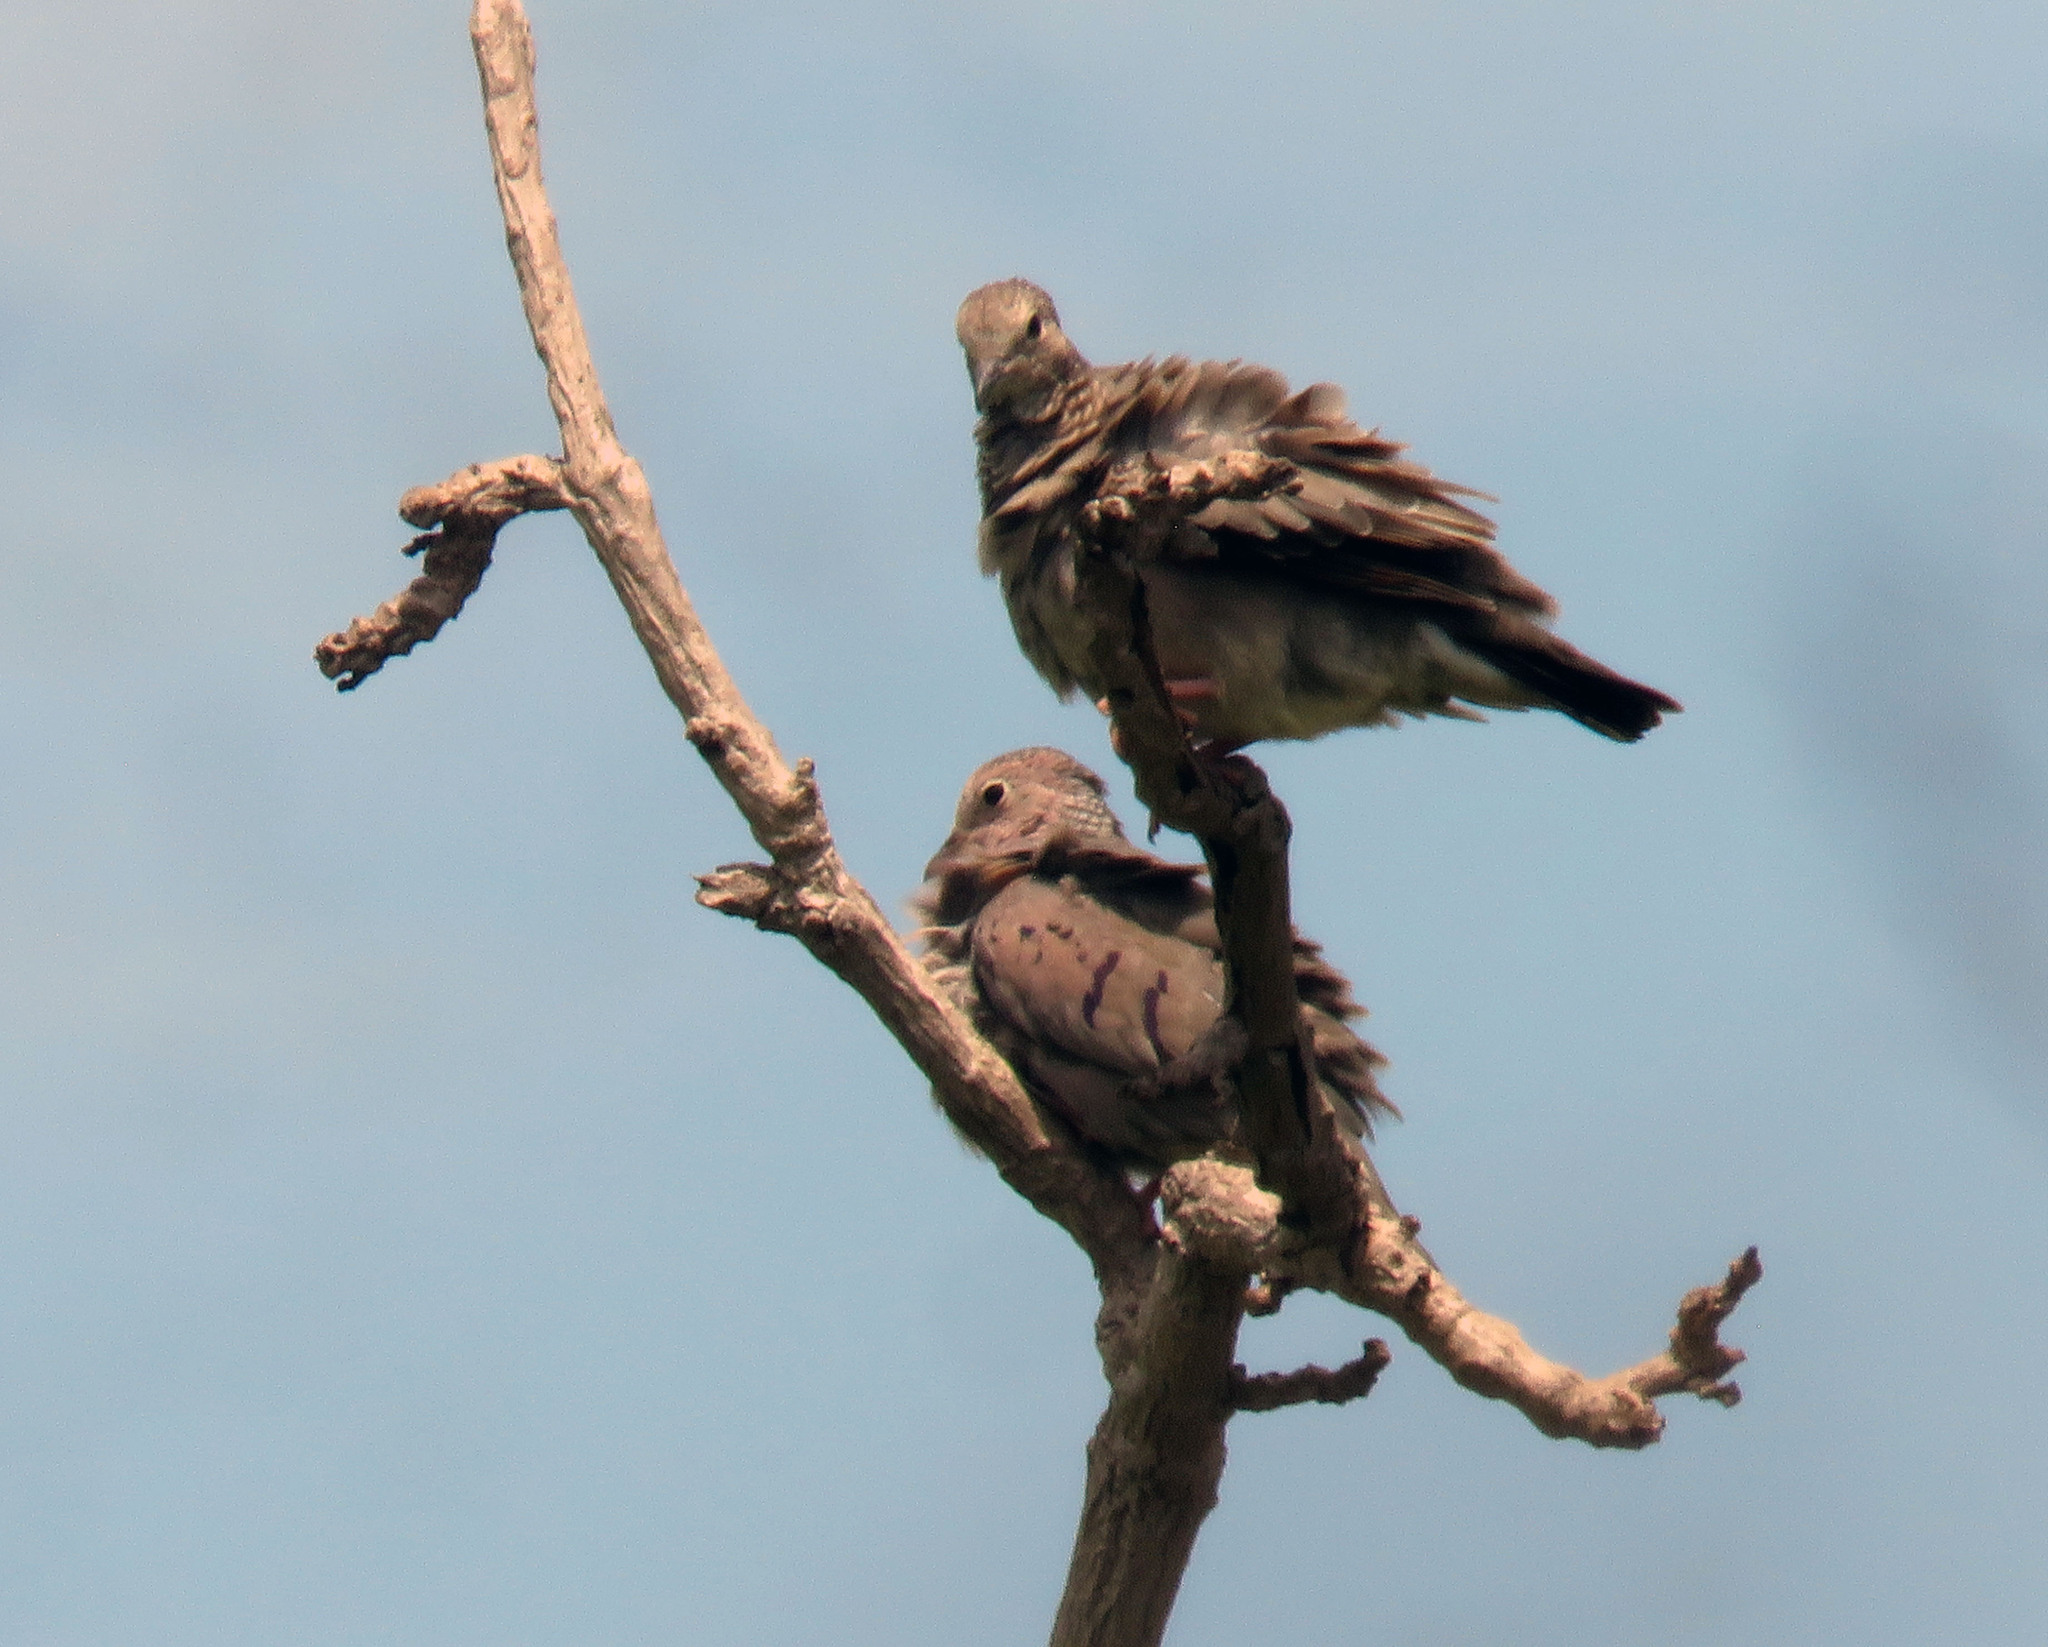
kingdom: Animalia
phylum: Chordata
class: Aves
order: Columbiformes
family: Columbidae
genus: Columbina
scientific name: Columbina passerina
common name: Common ground-dove
